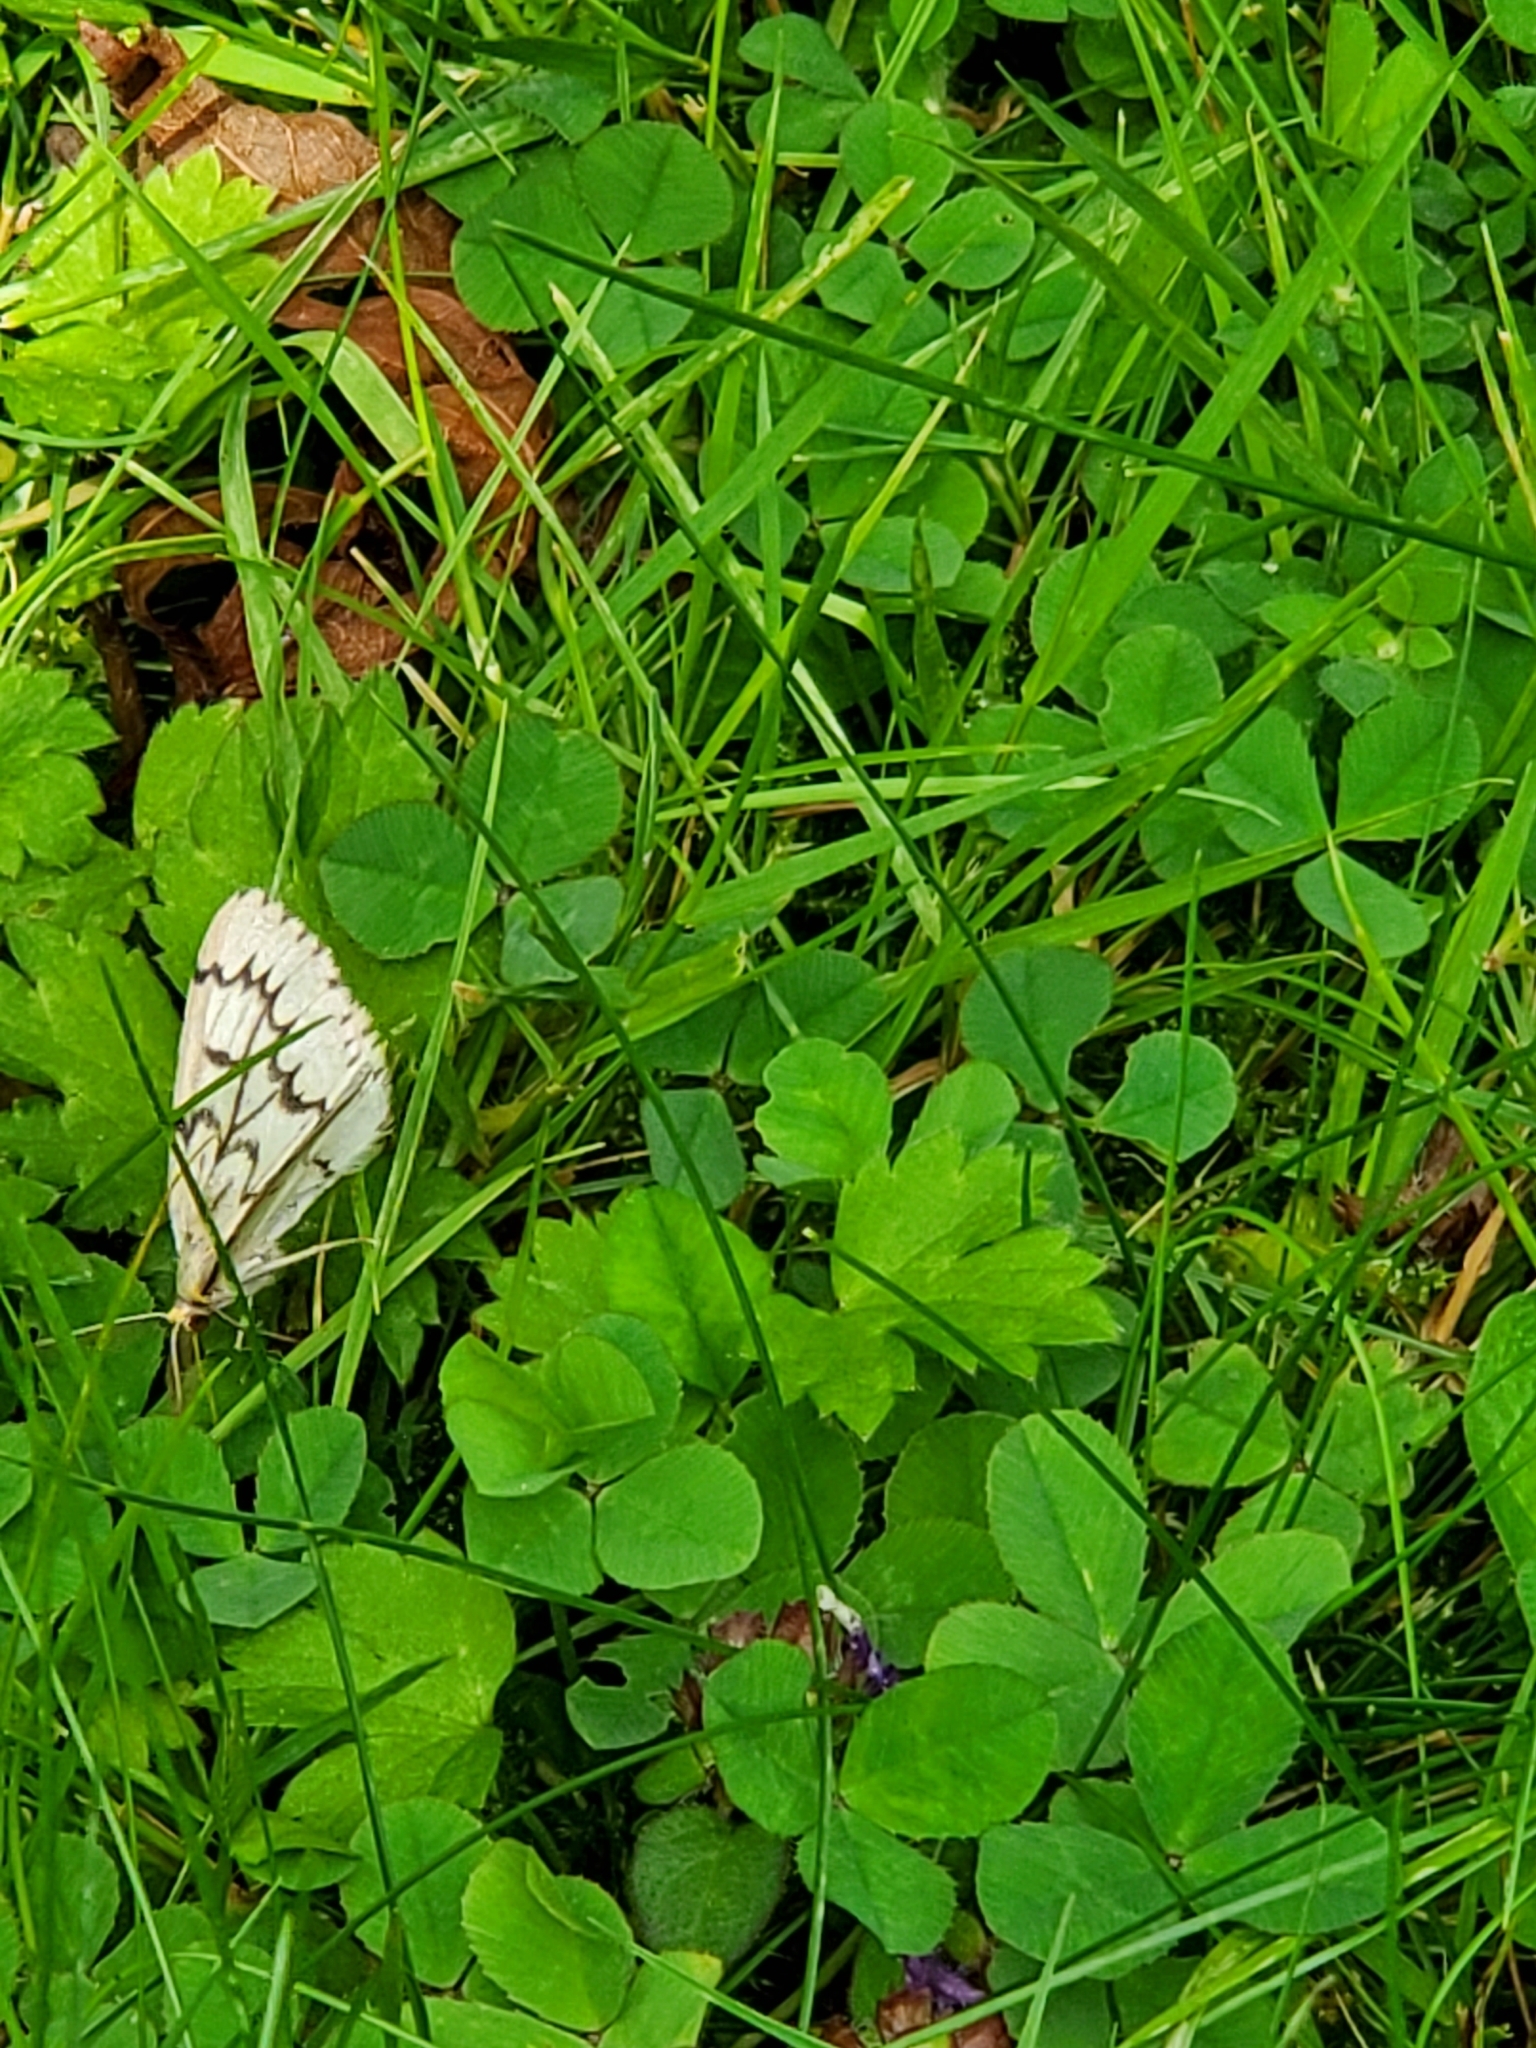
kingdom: Animalia
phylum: Arthropoda
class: Insecta
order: Lepidoptera
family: Geometridae
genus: Nepytia
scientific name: Nepytia phantasmaria
